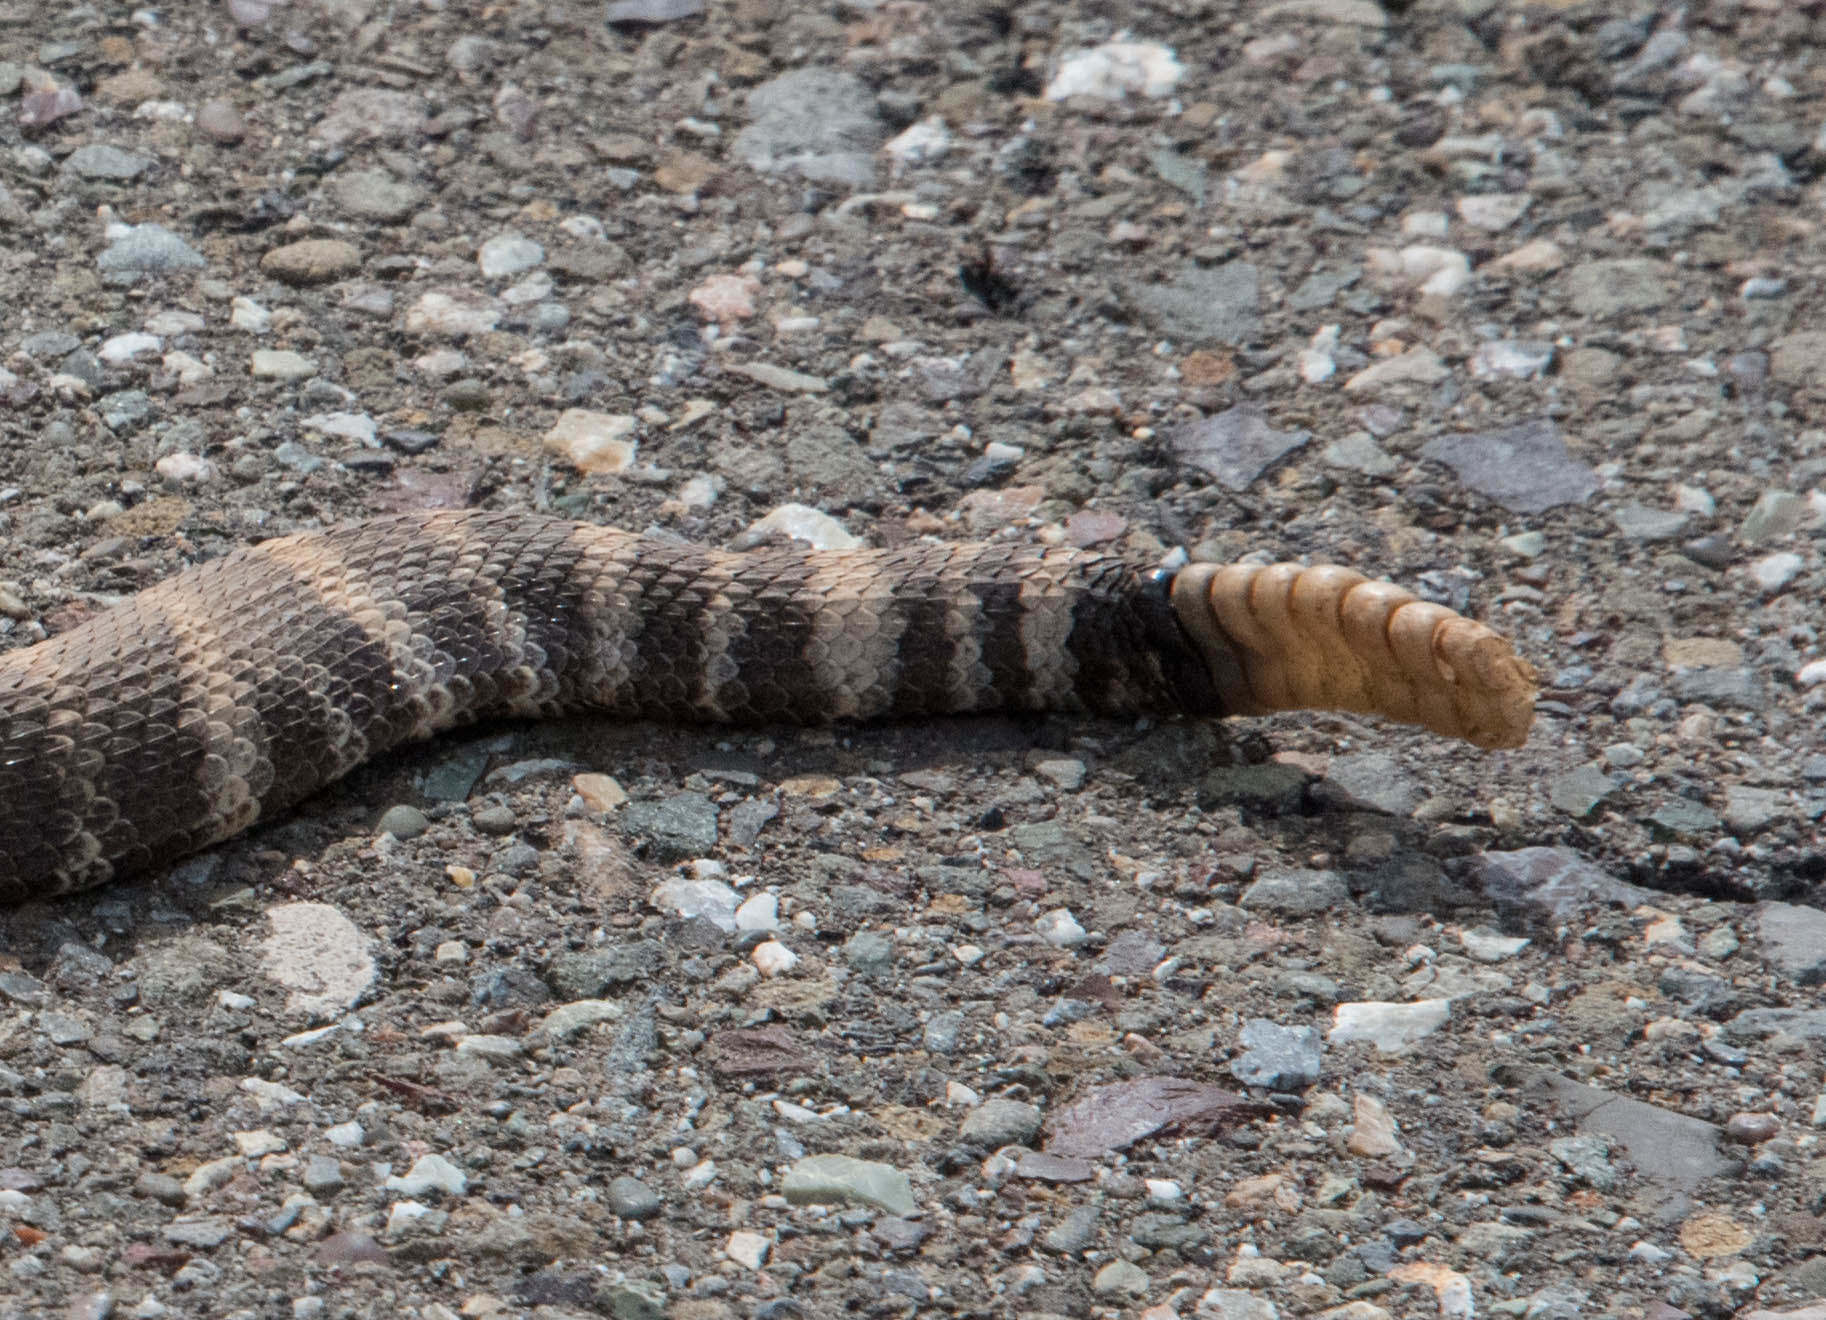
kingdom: Animalia
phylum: Chordata
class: Squamata
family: Viperidae
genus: Crotalus
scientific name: Crotalus oreganus
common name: Abyssus
